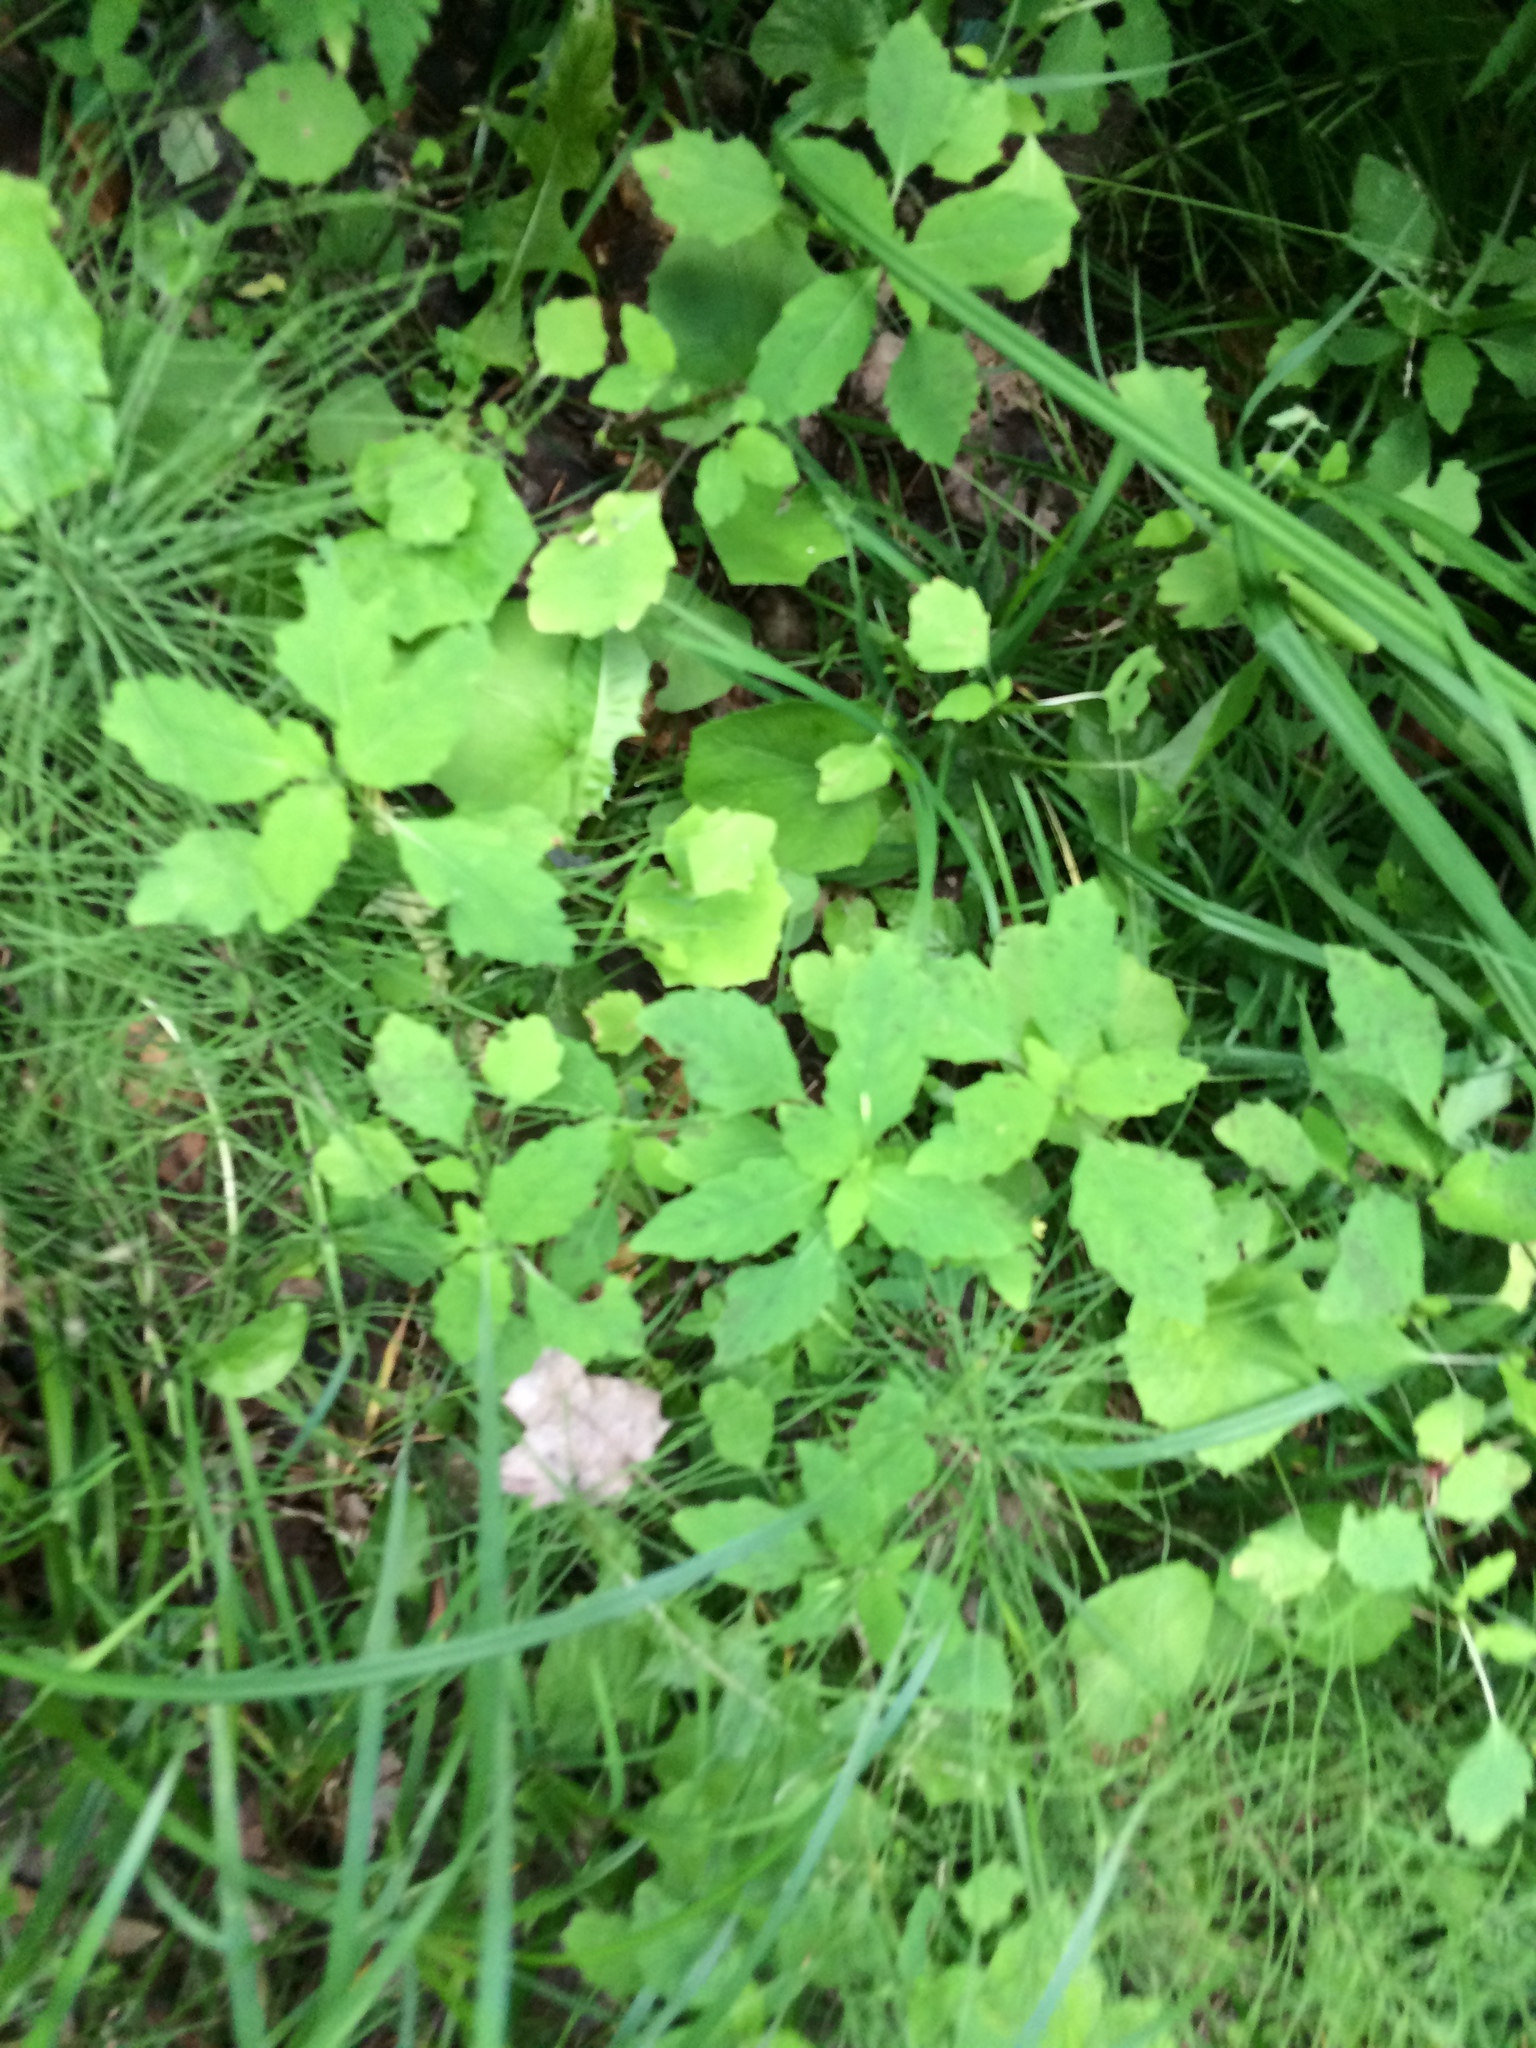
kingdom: Plantae
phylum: Tracheophyta
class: Magnoliopsida
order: Ericales
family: Balsaminaceae
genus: Impatiens
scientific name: Impatiens capensis
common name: Orange balsam
